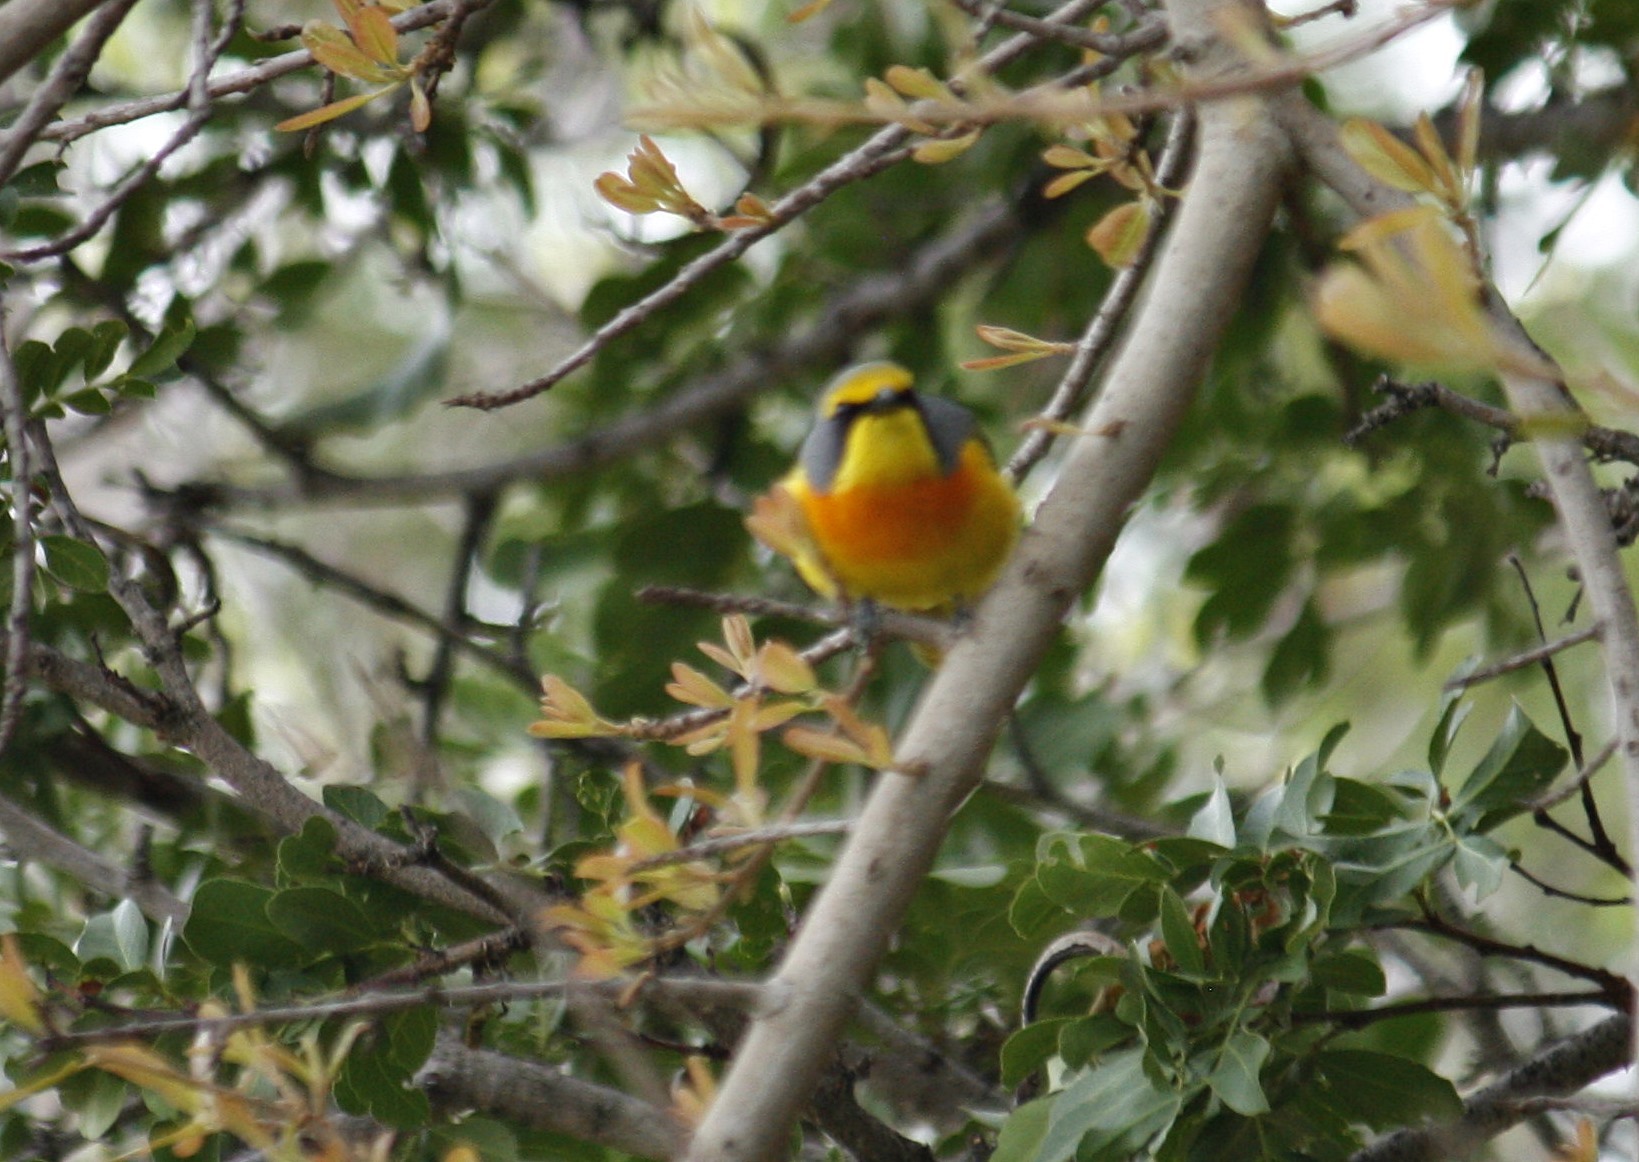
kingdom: Animalia
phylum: Chordata
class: Aves
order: Passeriformes
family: Malaconotidae
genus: Chlorophoneus
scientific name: Chlorophoneus sulfureopectus
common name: Orange-breasted bushshrike
